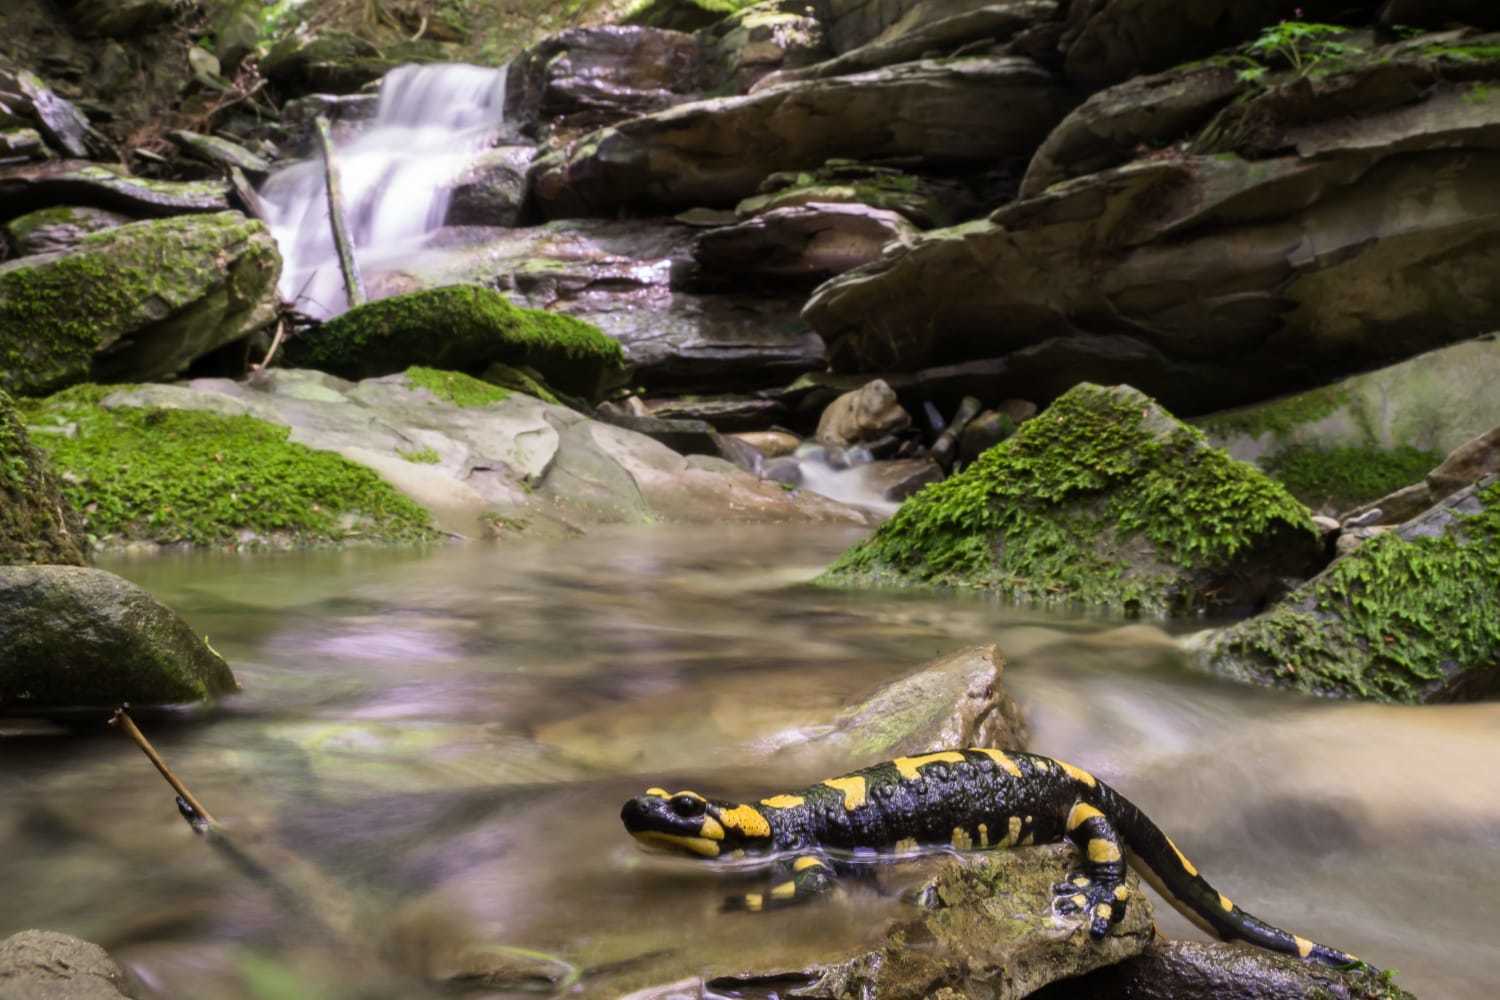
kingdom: Animalia
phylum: Chordata
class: Amphibia
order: Caudata
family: Salamandridae
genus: Salamandra
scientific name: Salamandra salamandra
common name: Fire salamander
